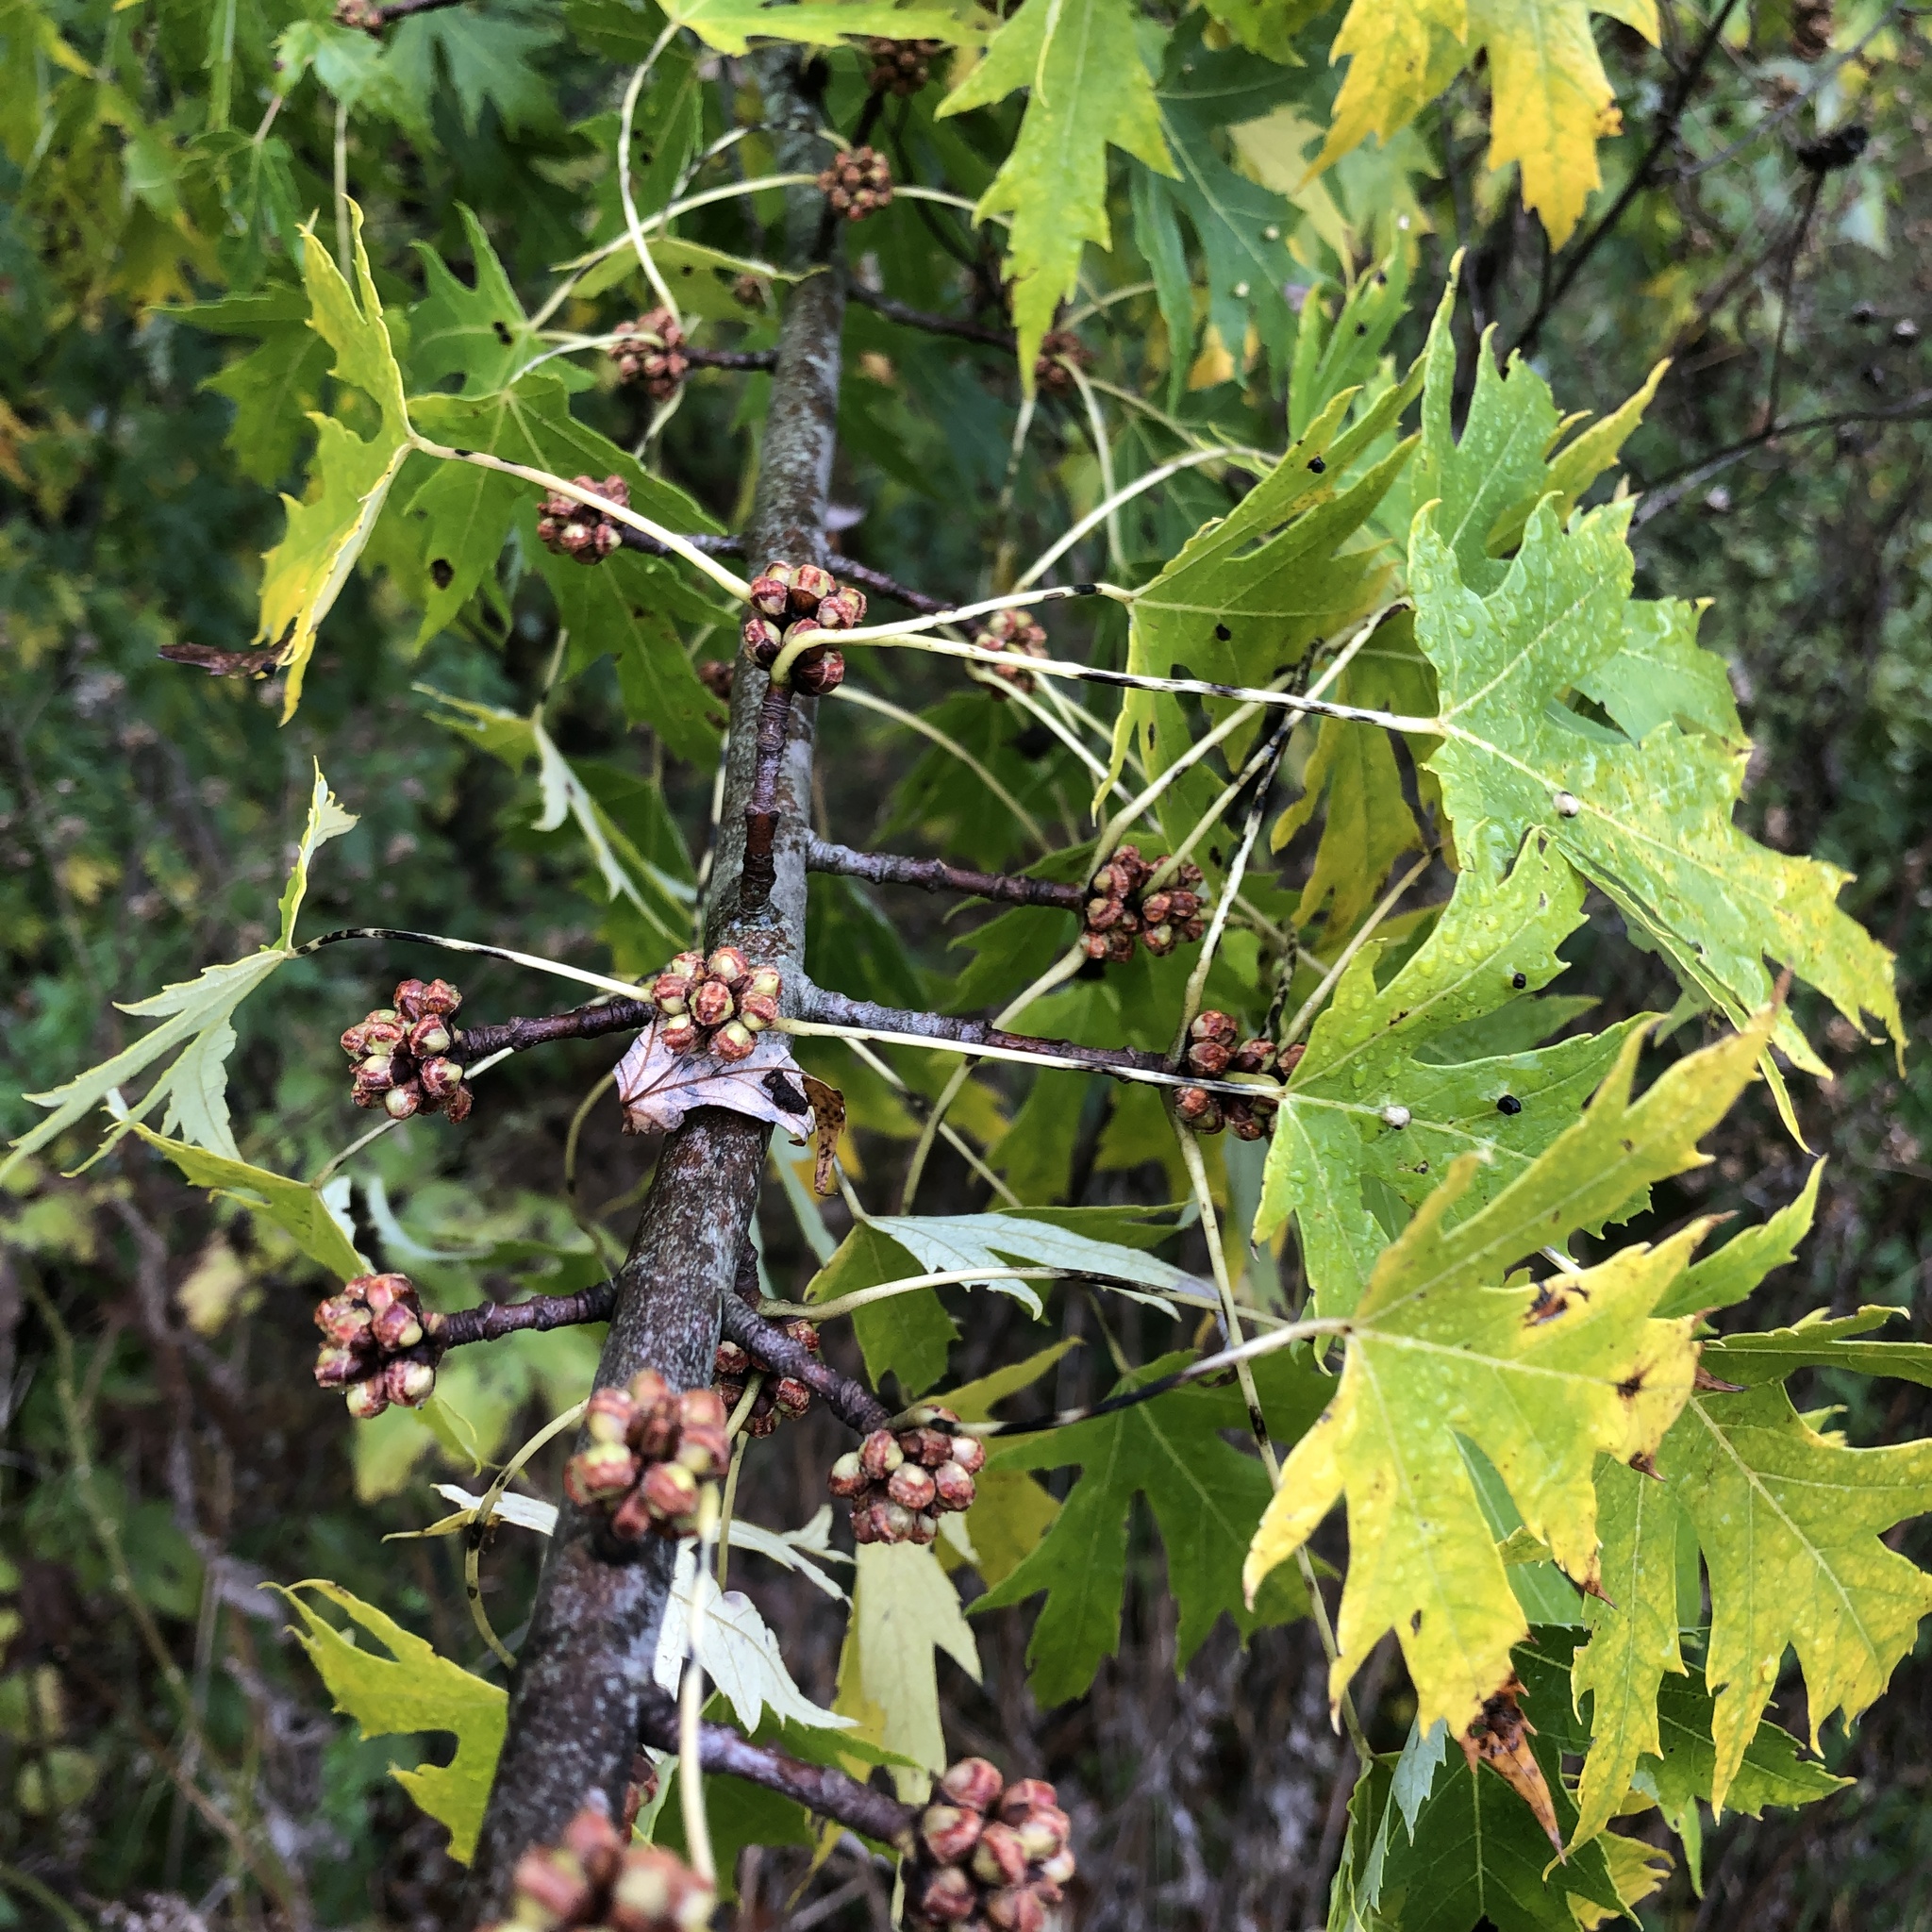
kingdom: Plantae
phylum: Tracheophyta
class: Magnoliopsida
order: Sapindales
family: Sapindaceae
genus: Acer
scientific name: Acer saccharinum
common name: Silver maple
